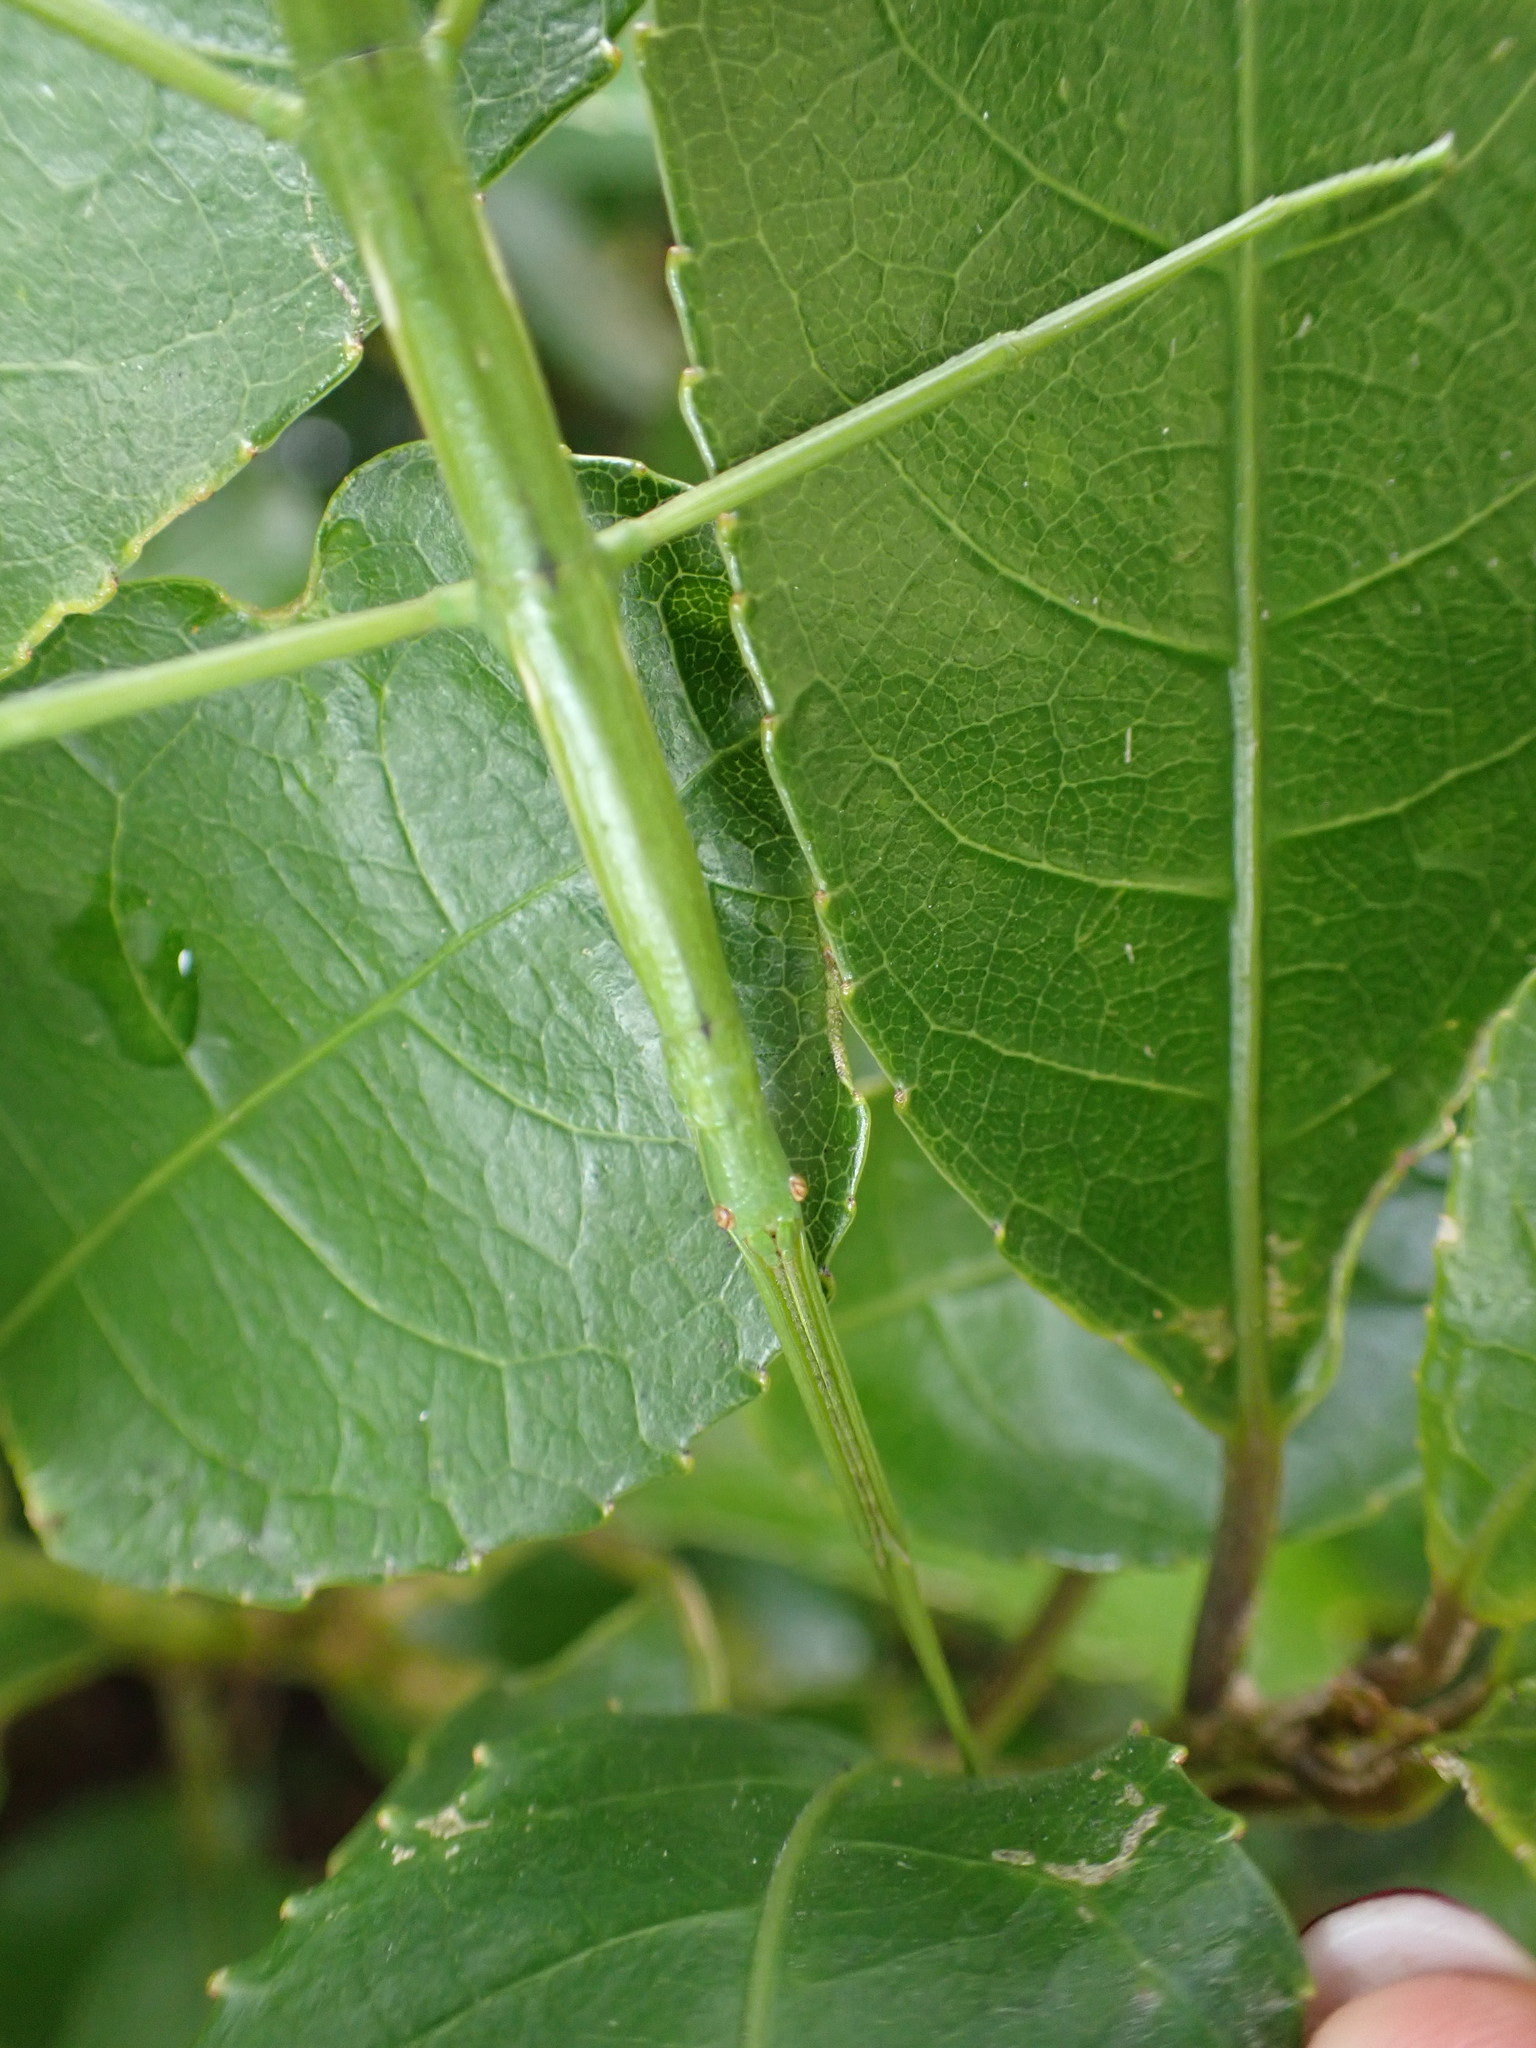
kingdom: Animalia
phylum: Arthropoda
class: Insecta
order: Phasmida
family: Phasmatidae
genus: Clitarchus
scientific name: Clitarchus hookeri
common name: Smooth stick insect
